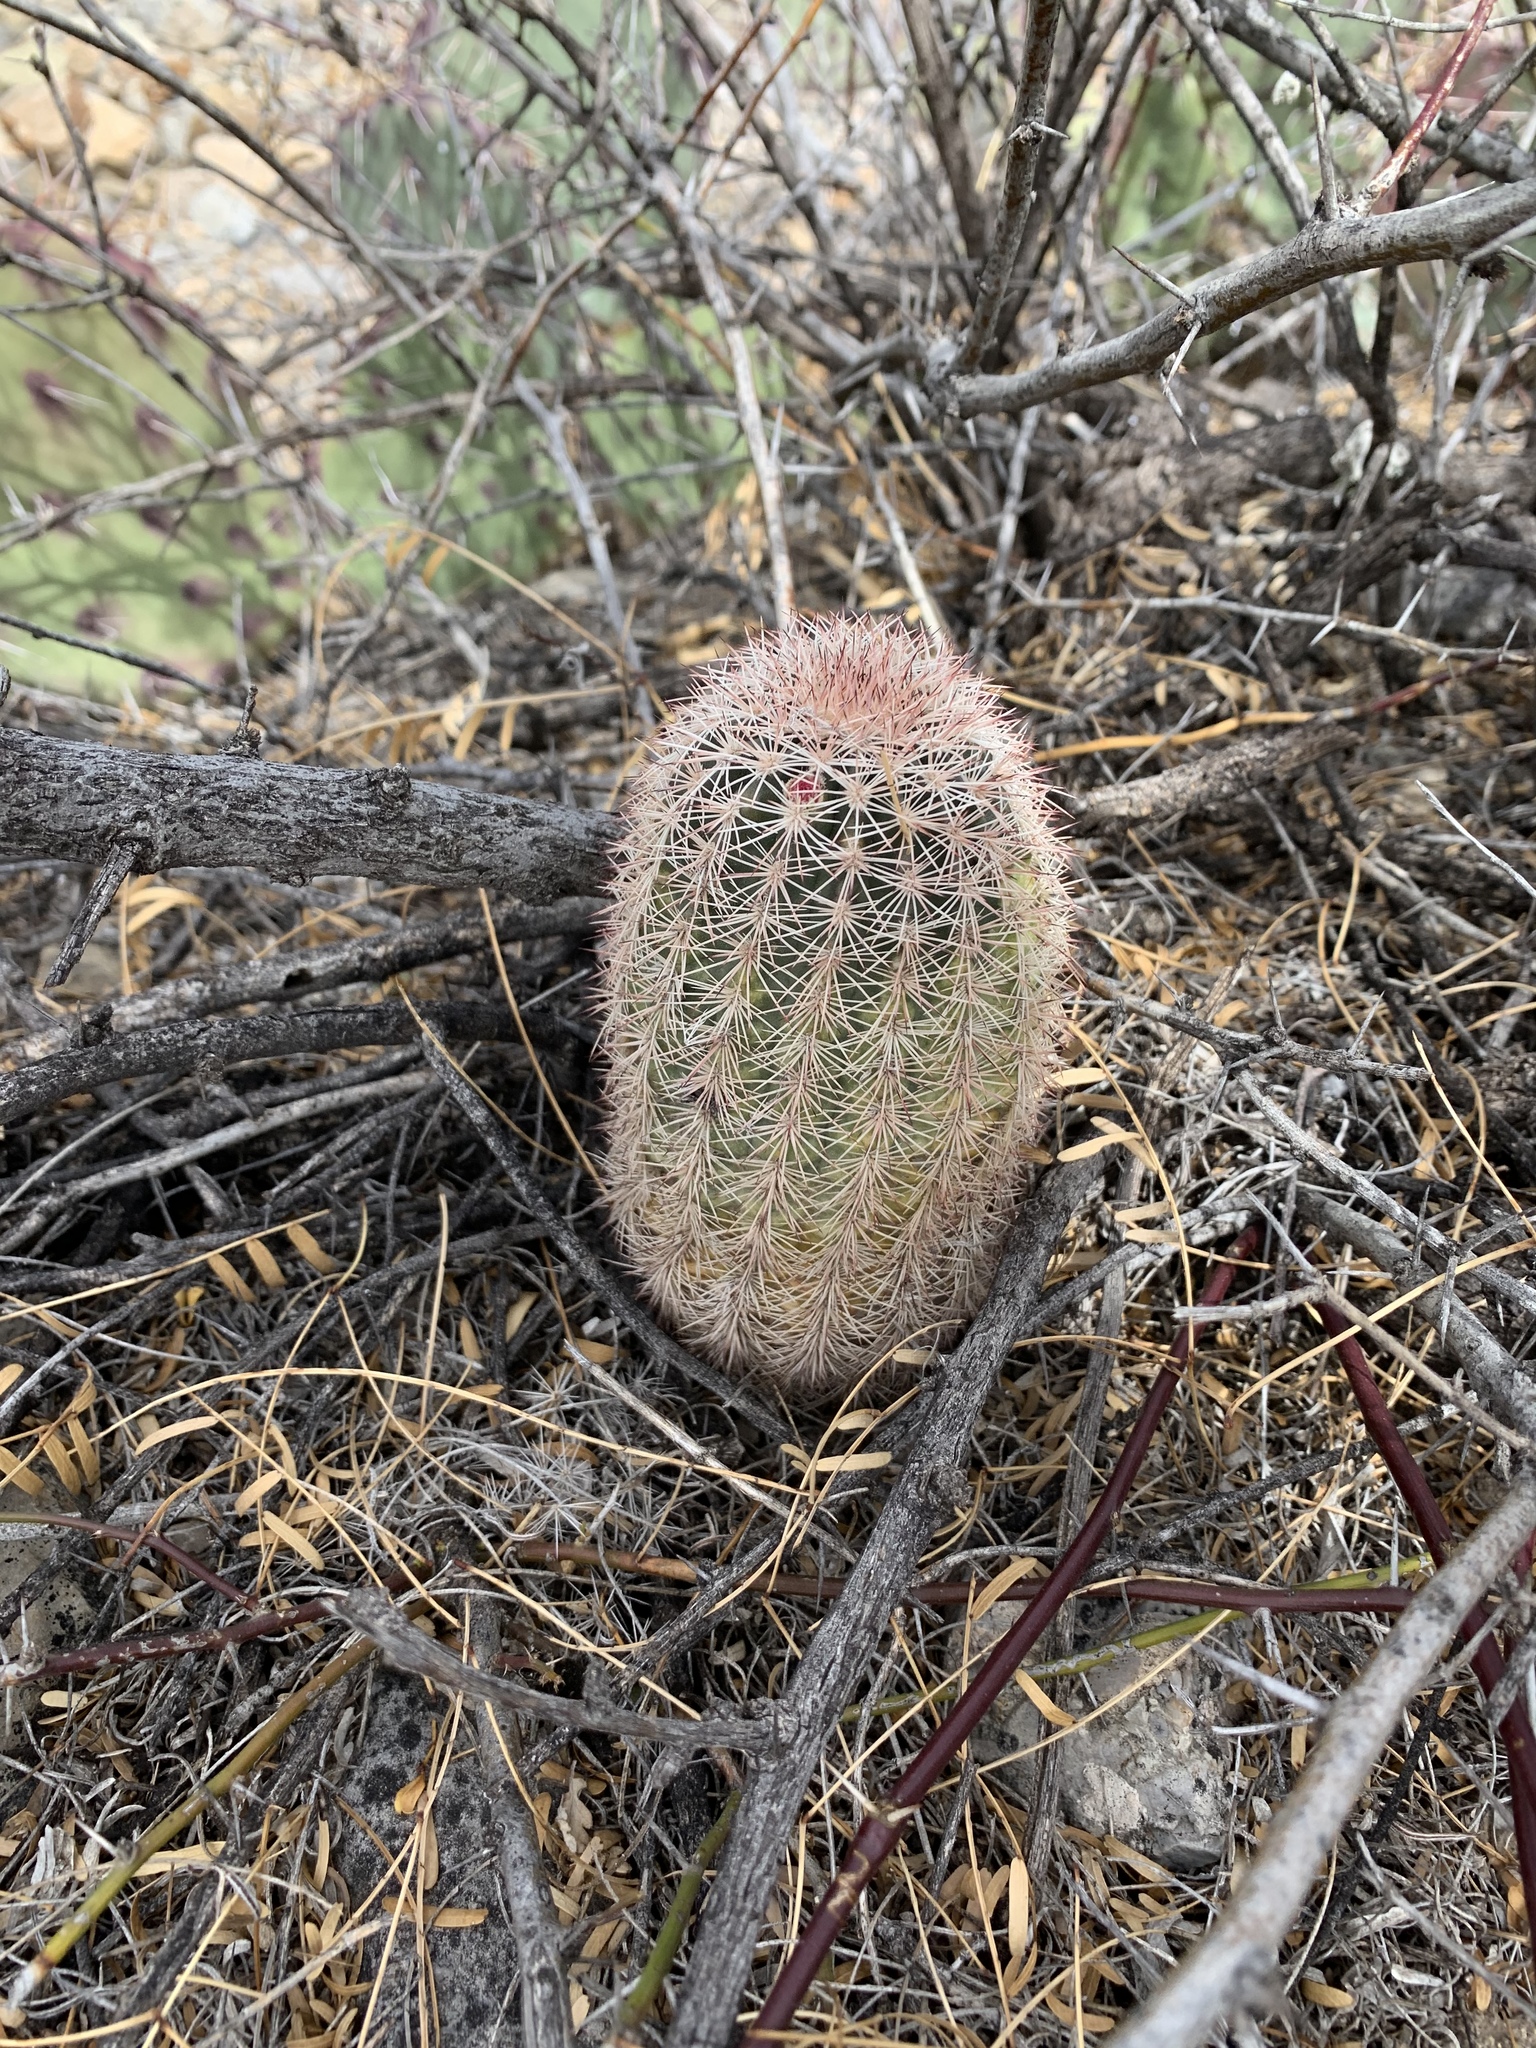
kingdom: Plantae
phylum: Tracheophyta
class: Magnoliopsida
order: Caryophyllales
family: Cactaceae
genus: Echinocereus
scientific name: Echinocereus dasyacanthus
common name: Spiny hedgehog cactus
